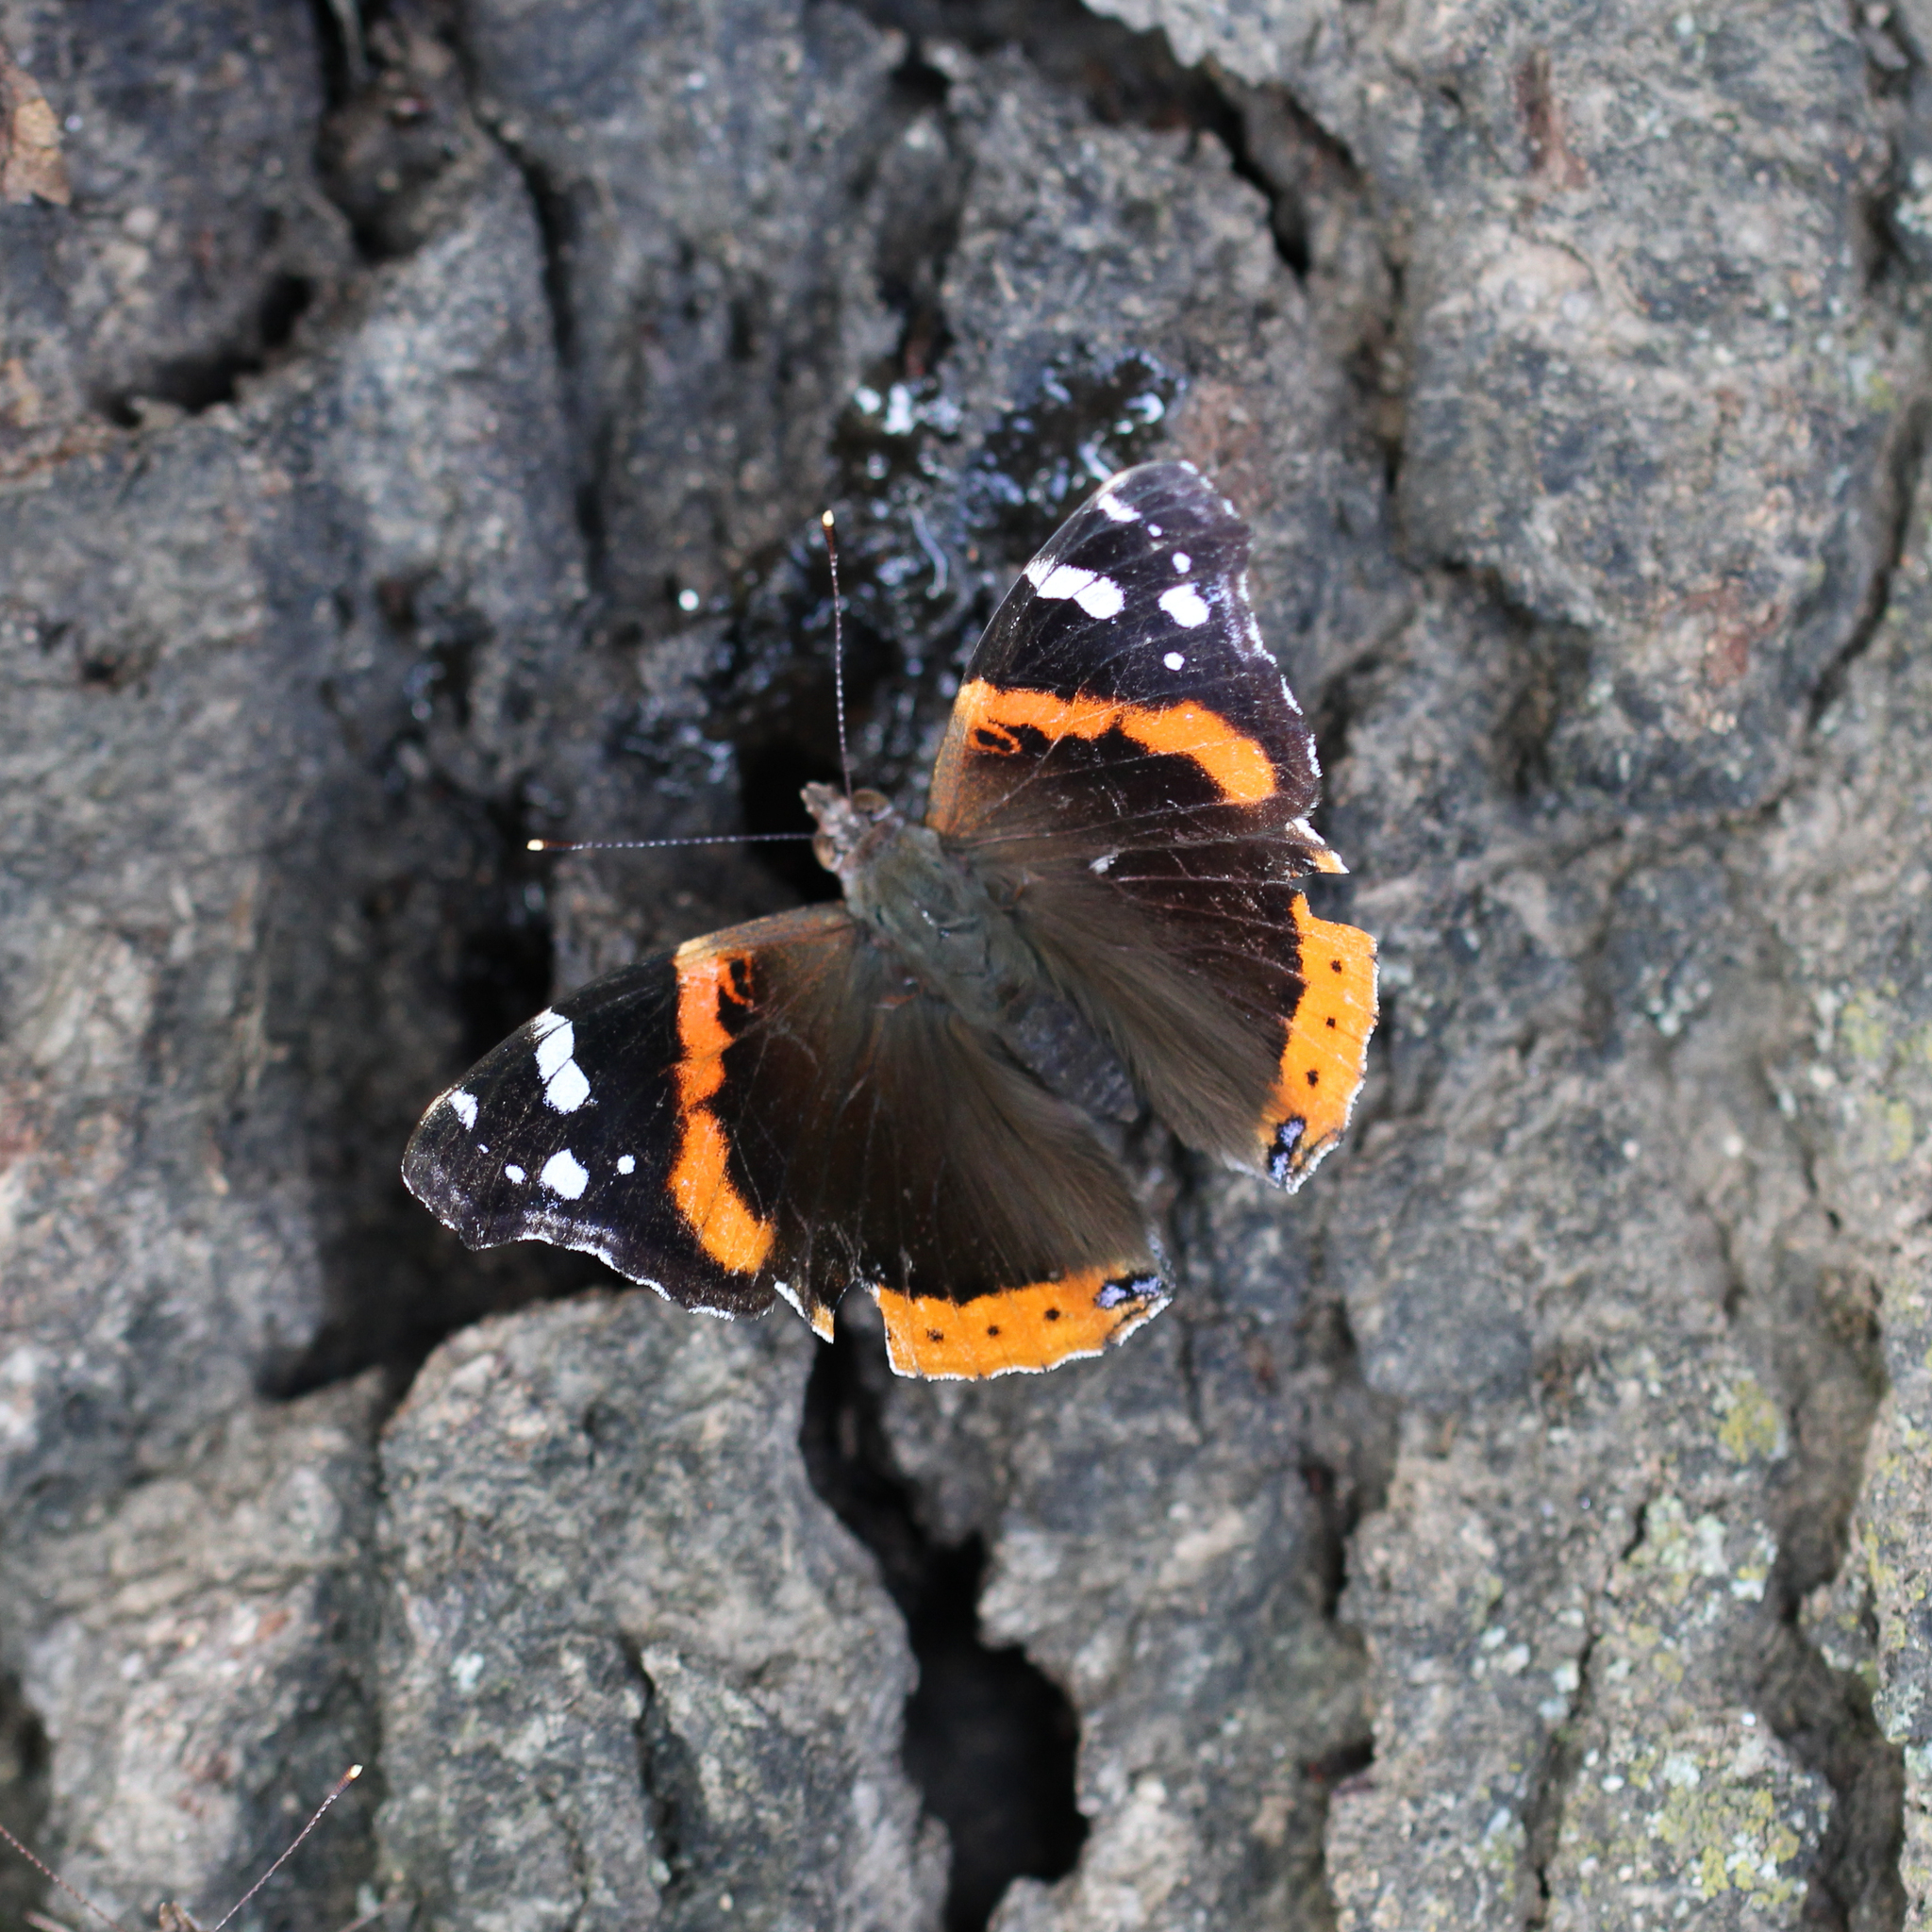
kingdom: Animalia
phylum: Arthropoda
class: Insecta
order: Lepidoptera
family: Nymphalidae
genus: Vanessa
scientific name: Vanessa atalanta
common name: Red admiral
